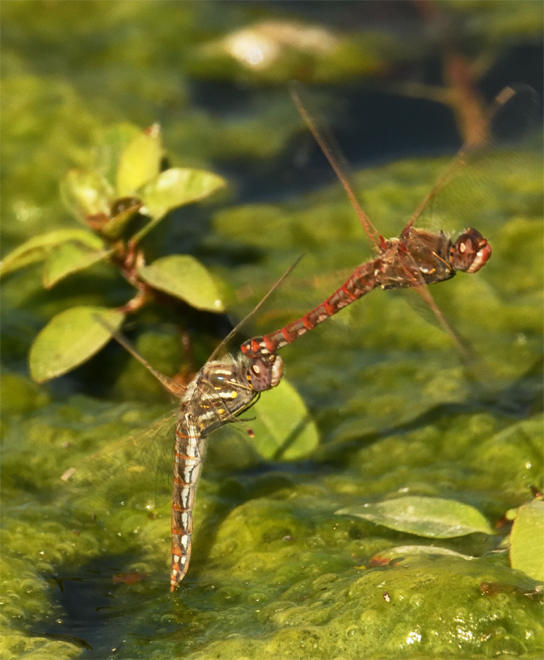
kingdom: Animalia
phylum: Arthropoda
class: Insecta
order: Odonata
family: Libellulidae
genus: Sympetrum
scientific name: Sympetrum corruptum
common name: Variegated meadowhawk
